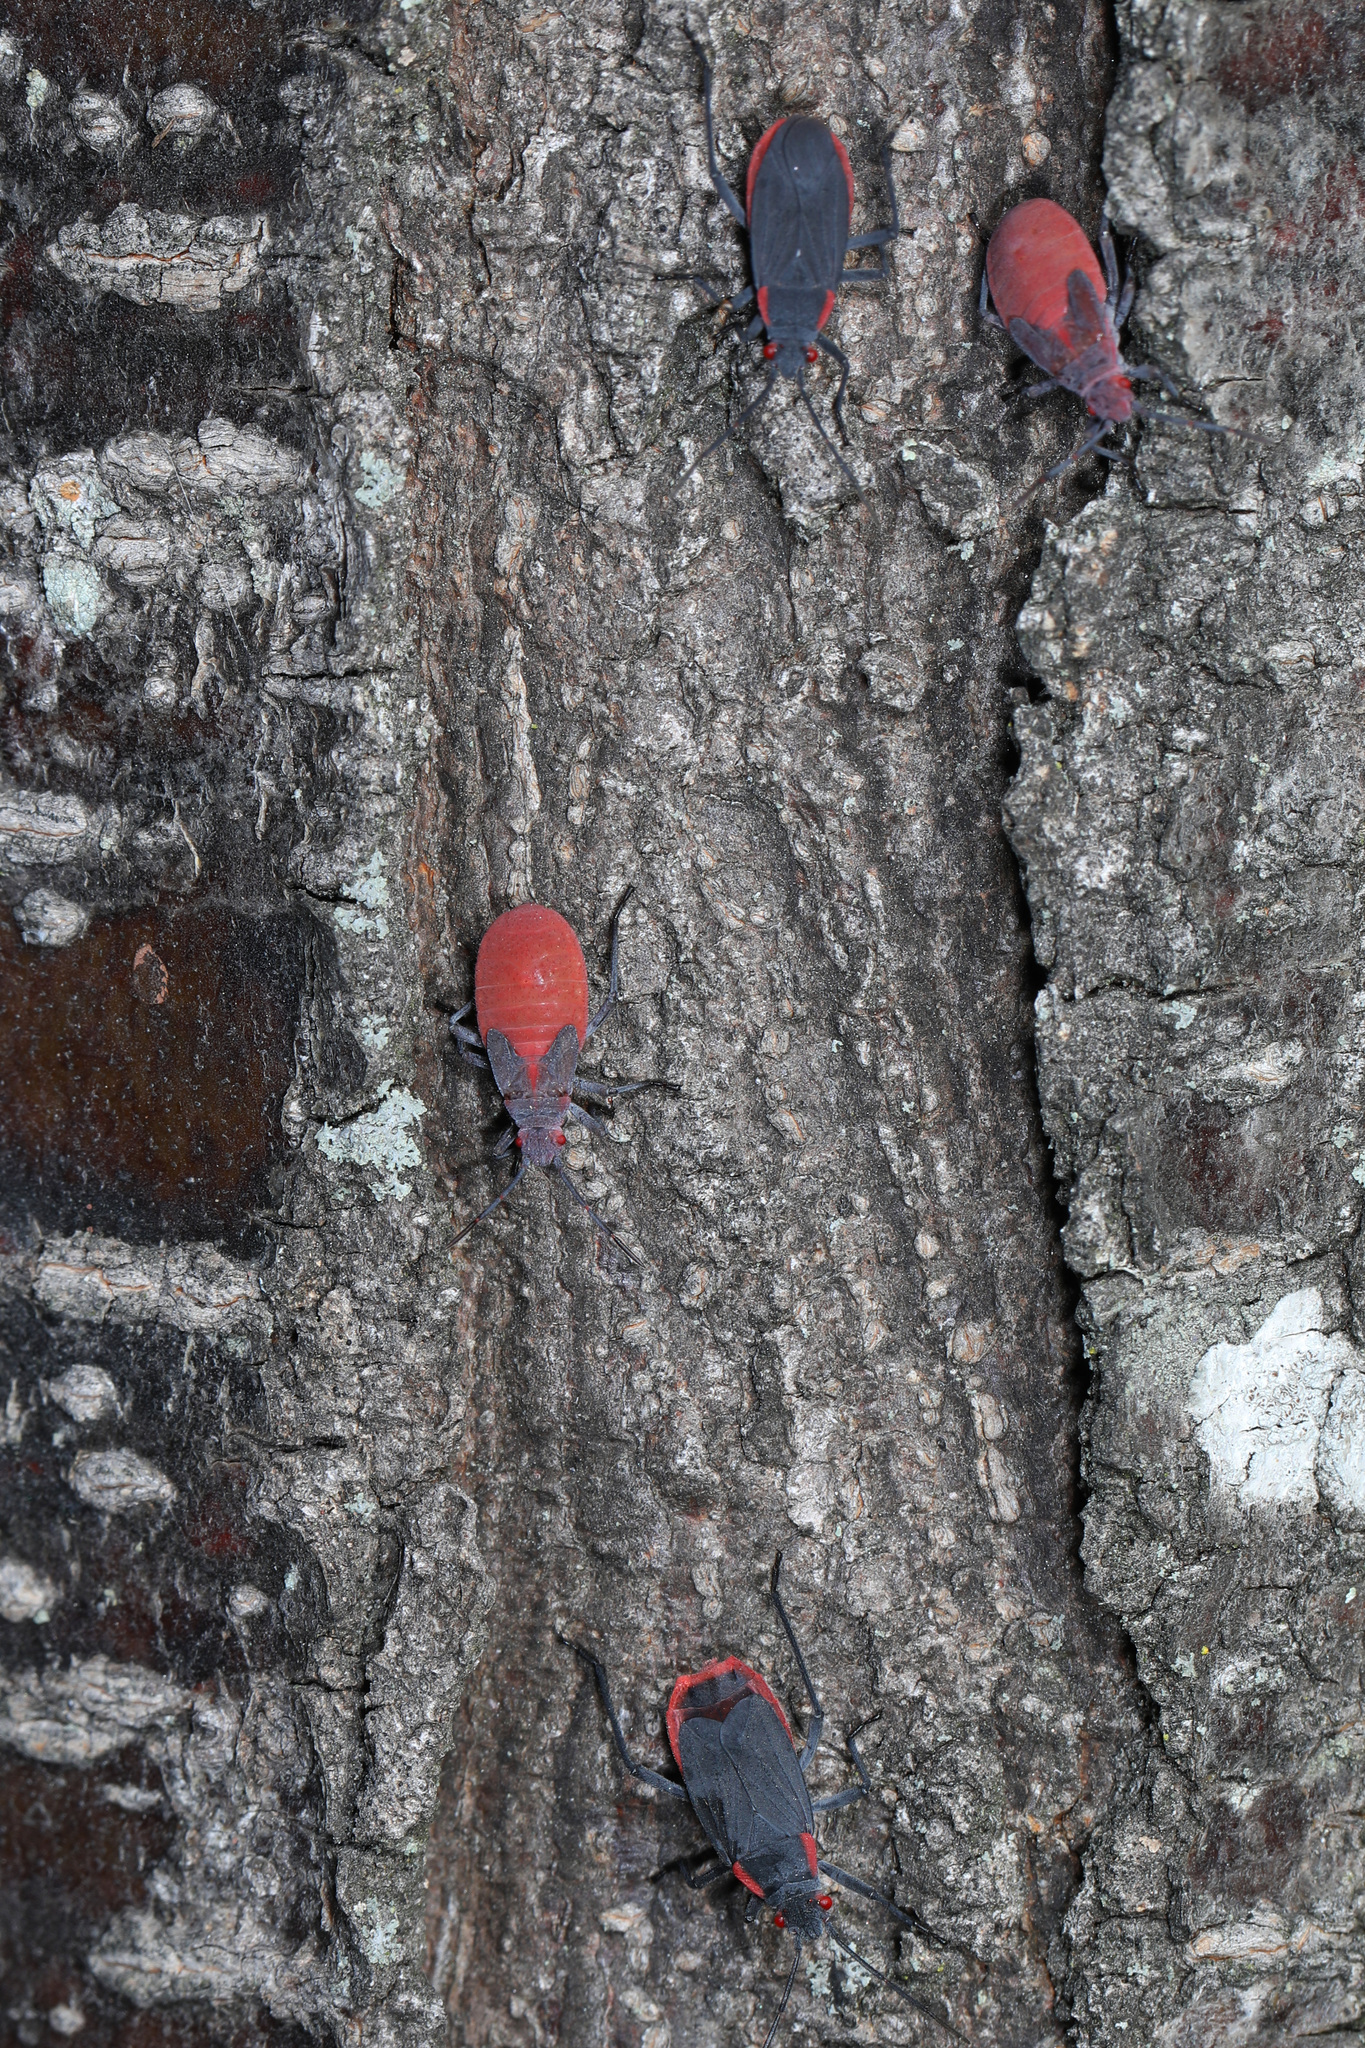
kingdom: Animalia
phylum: Arthropoda
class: Insecta
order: Hemiptera
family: Rhopalidae
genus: Jadera
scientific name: Jadera haematoloma
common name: Red-shouldered bug
